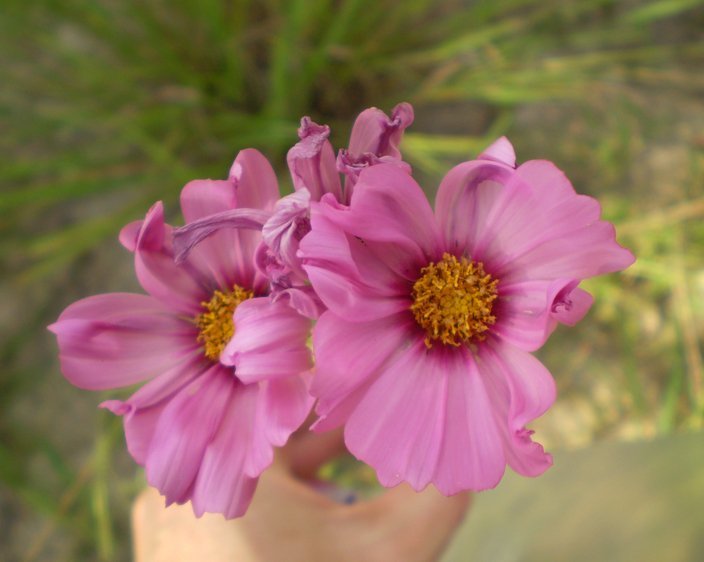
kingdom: Plantae
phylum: Tracheophyta
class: Magnoliopsida
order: Asterales
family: Asteraceae
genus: Cosmos
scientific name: Cosmos bipinnatus
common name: Garden cosmos
